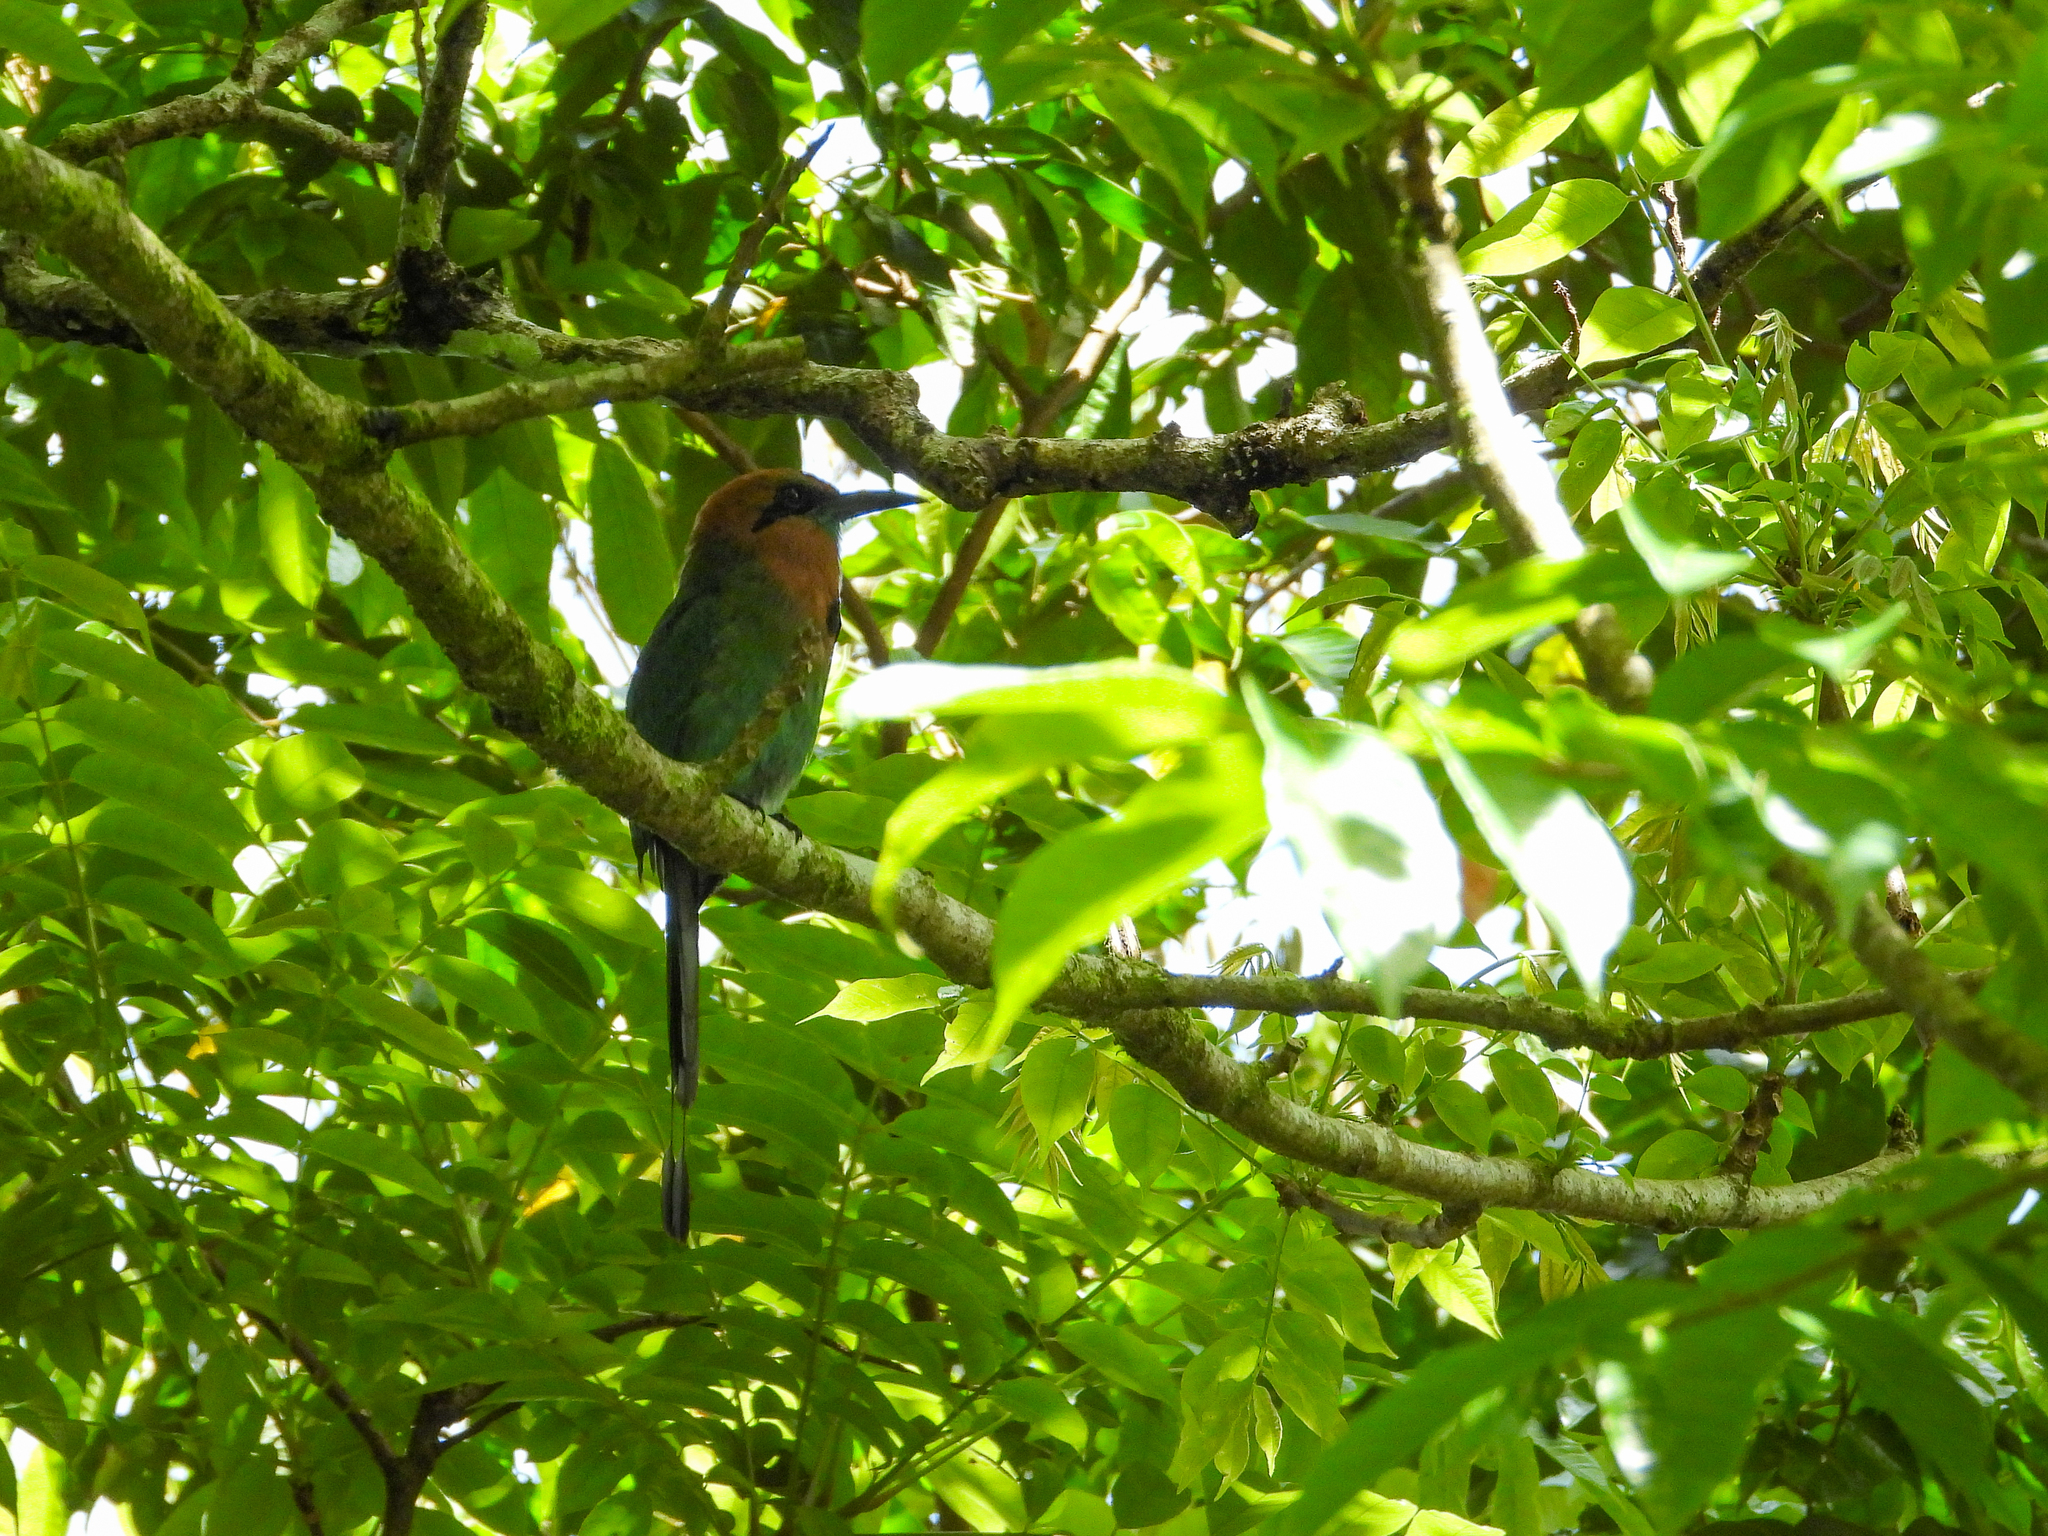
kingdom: Animalia
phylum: Chordata
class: Aves
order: Coraciiformes
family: Momotidae
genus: Electron
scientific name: Electron platyrhynchum
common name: Broad-billed motmot
